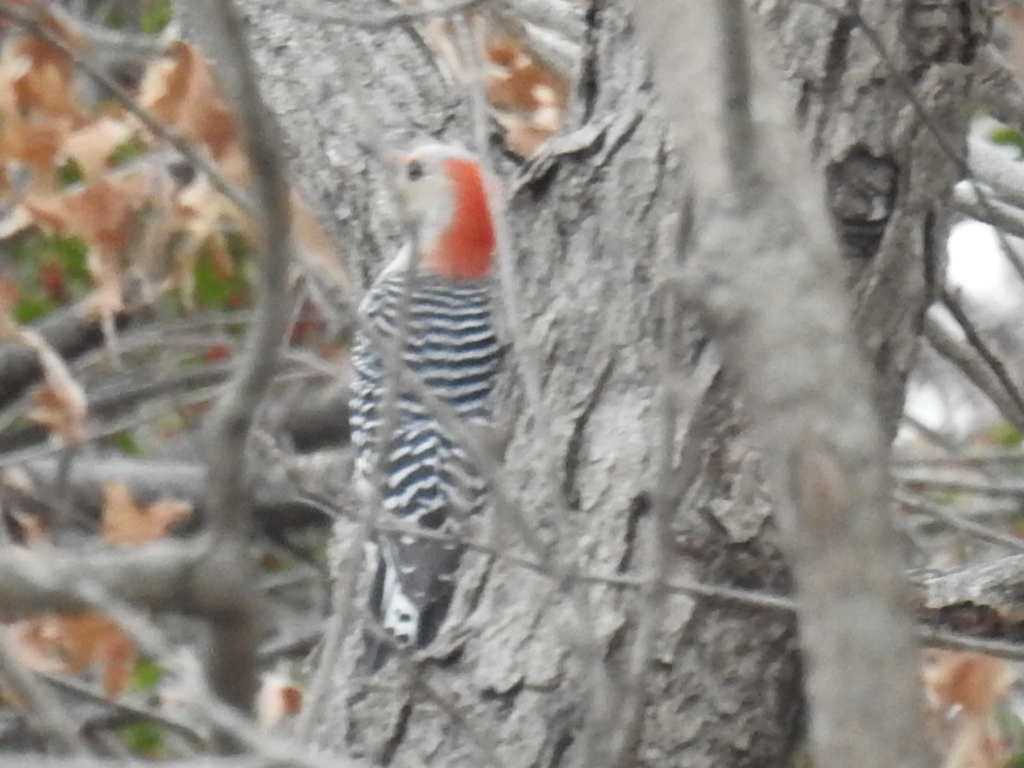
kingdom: Animalia
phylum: Chordata
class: Aves
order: Piciformes
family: Picidae
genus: Melanerpes
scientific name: Melanerpes carolinus
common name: Red-bellied woodpecker
